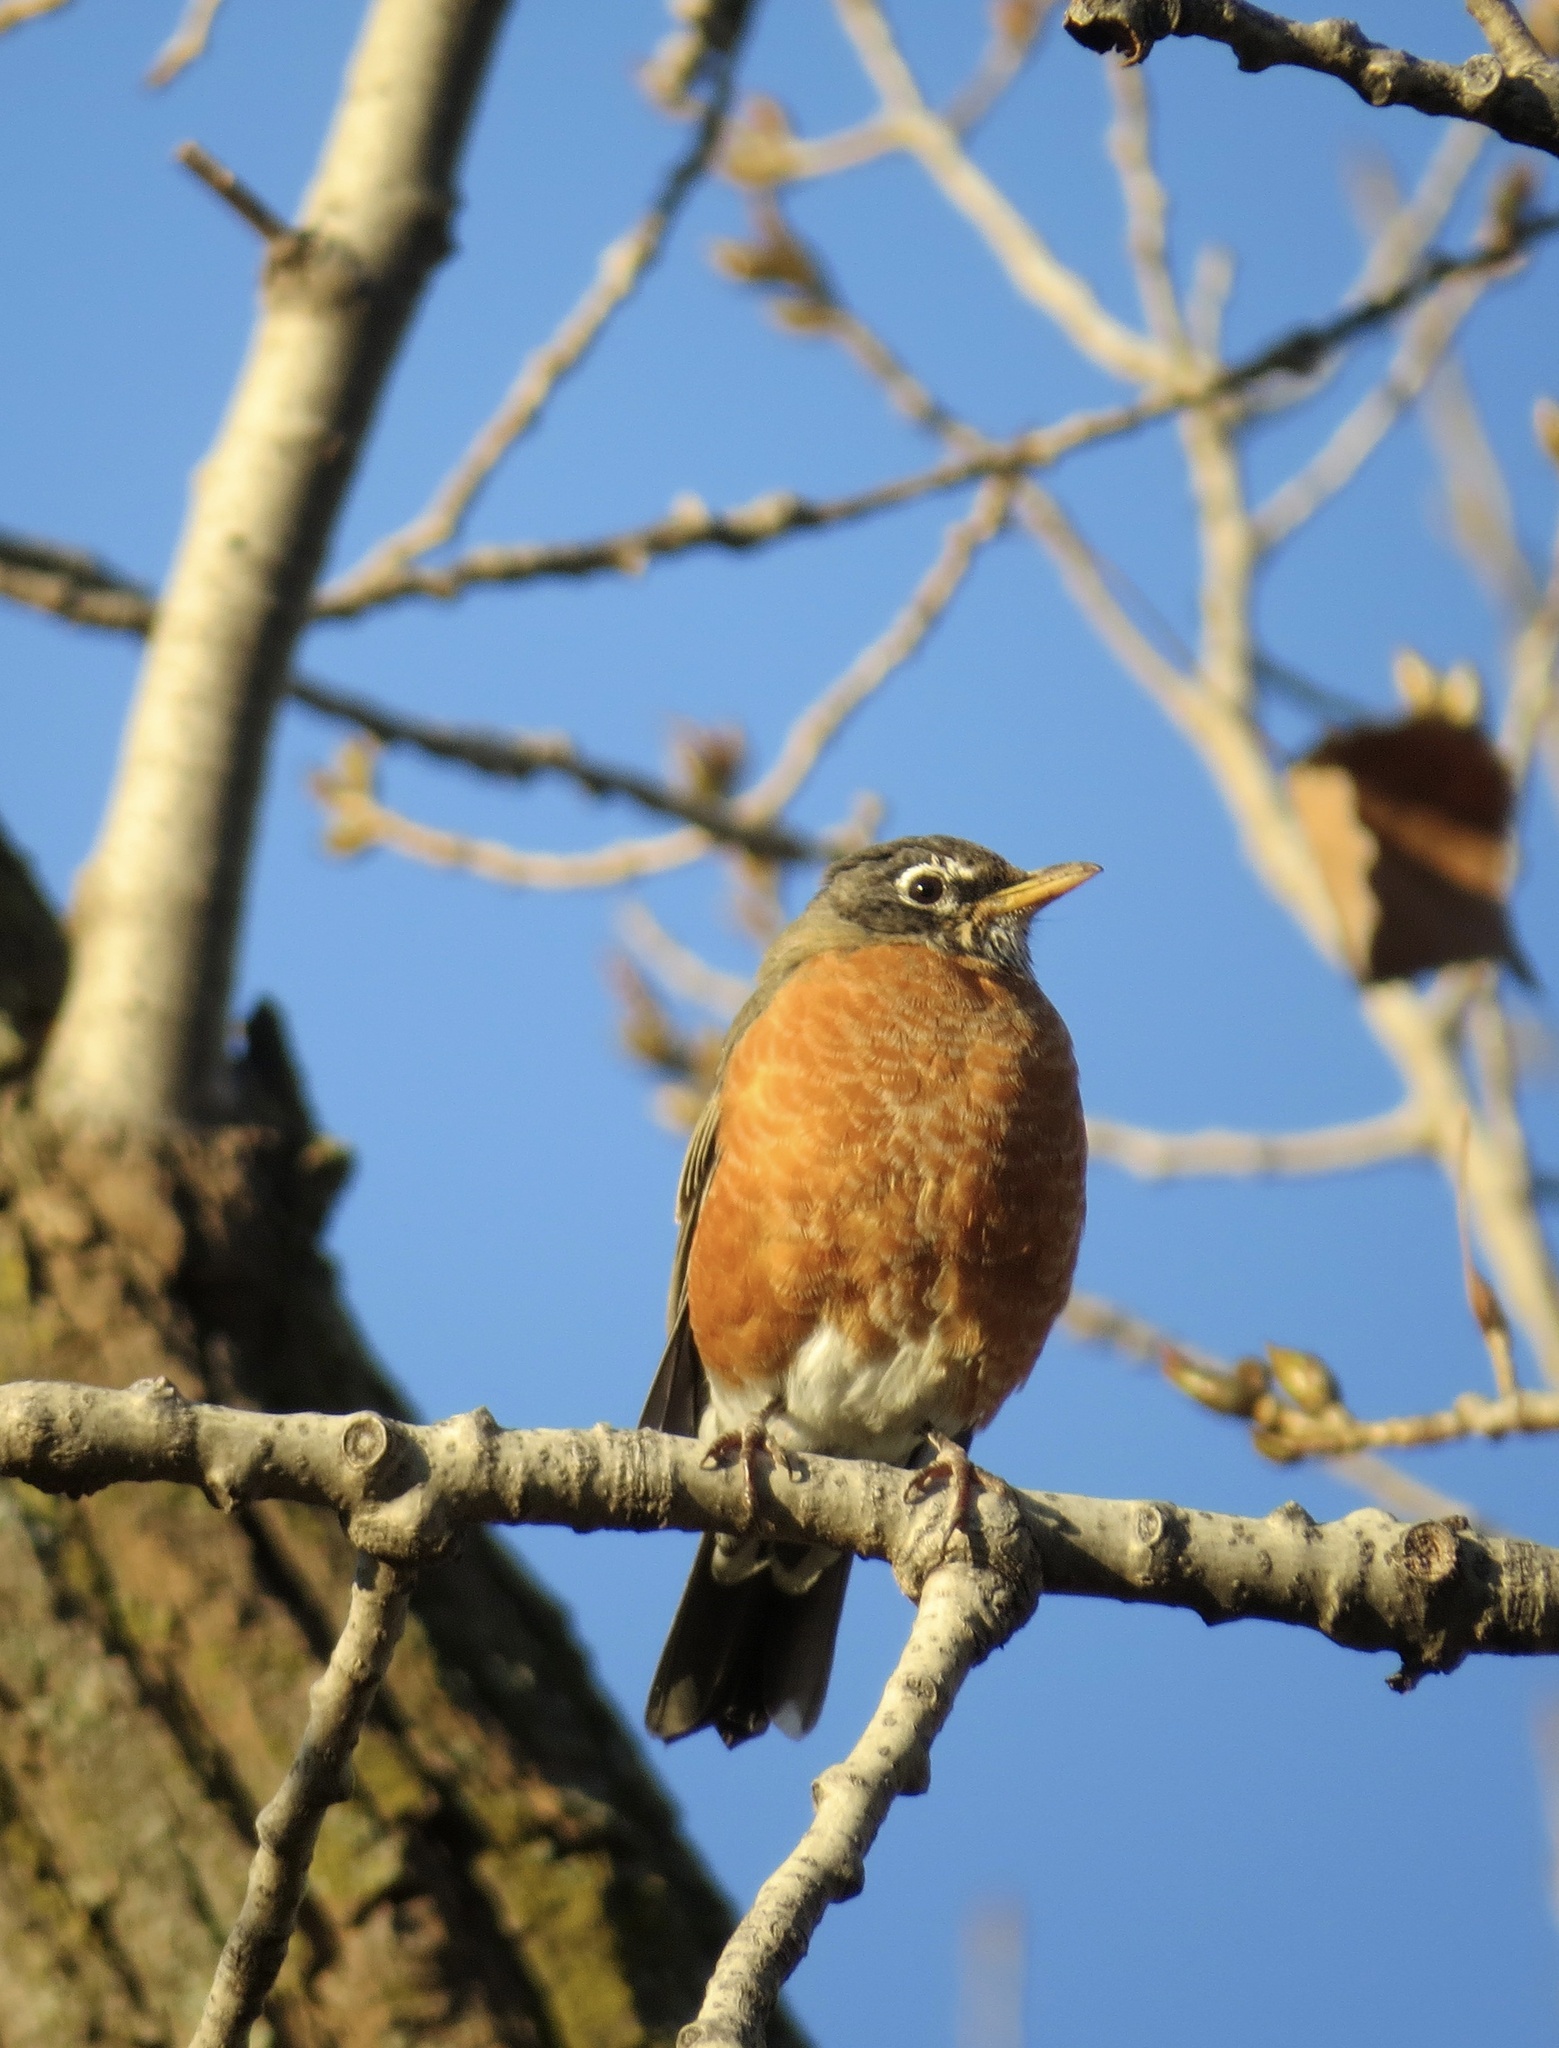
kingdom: Animalia
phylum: Chordata
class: Aves
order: Passeriformes
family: Turdidae
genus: Turdus
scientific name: Turdus migratorius
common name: American robin
